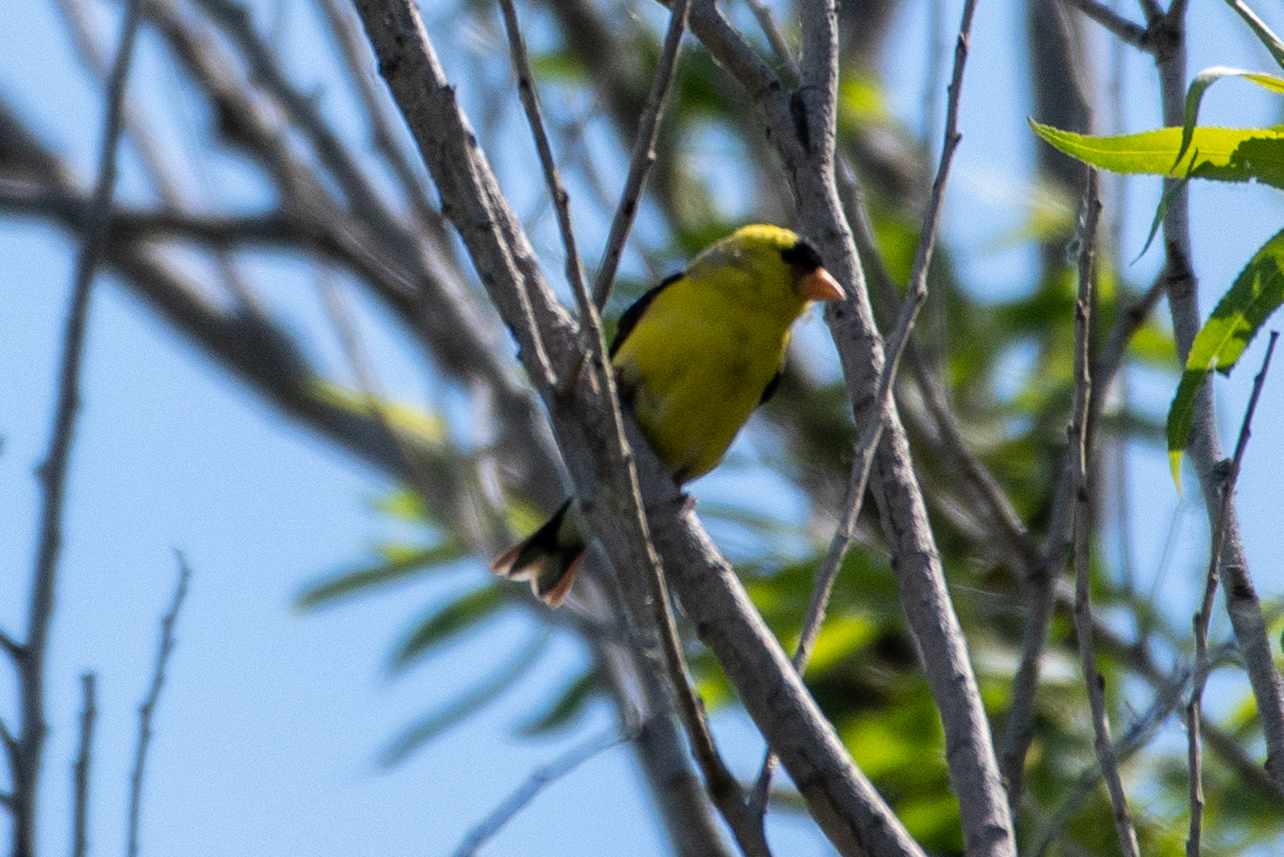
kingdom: Animalia
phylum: Chordata
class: Aves
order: Passeriformes
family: Fringillidae
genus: Spinus
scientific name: Spinus tristis
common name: American goldfinch
